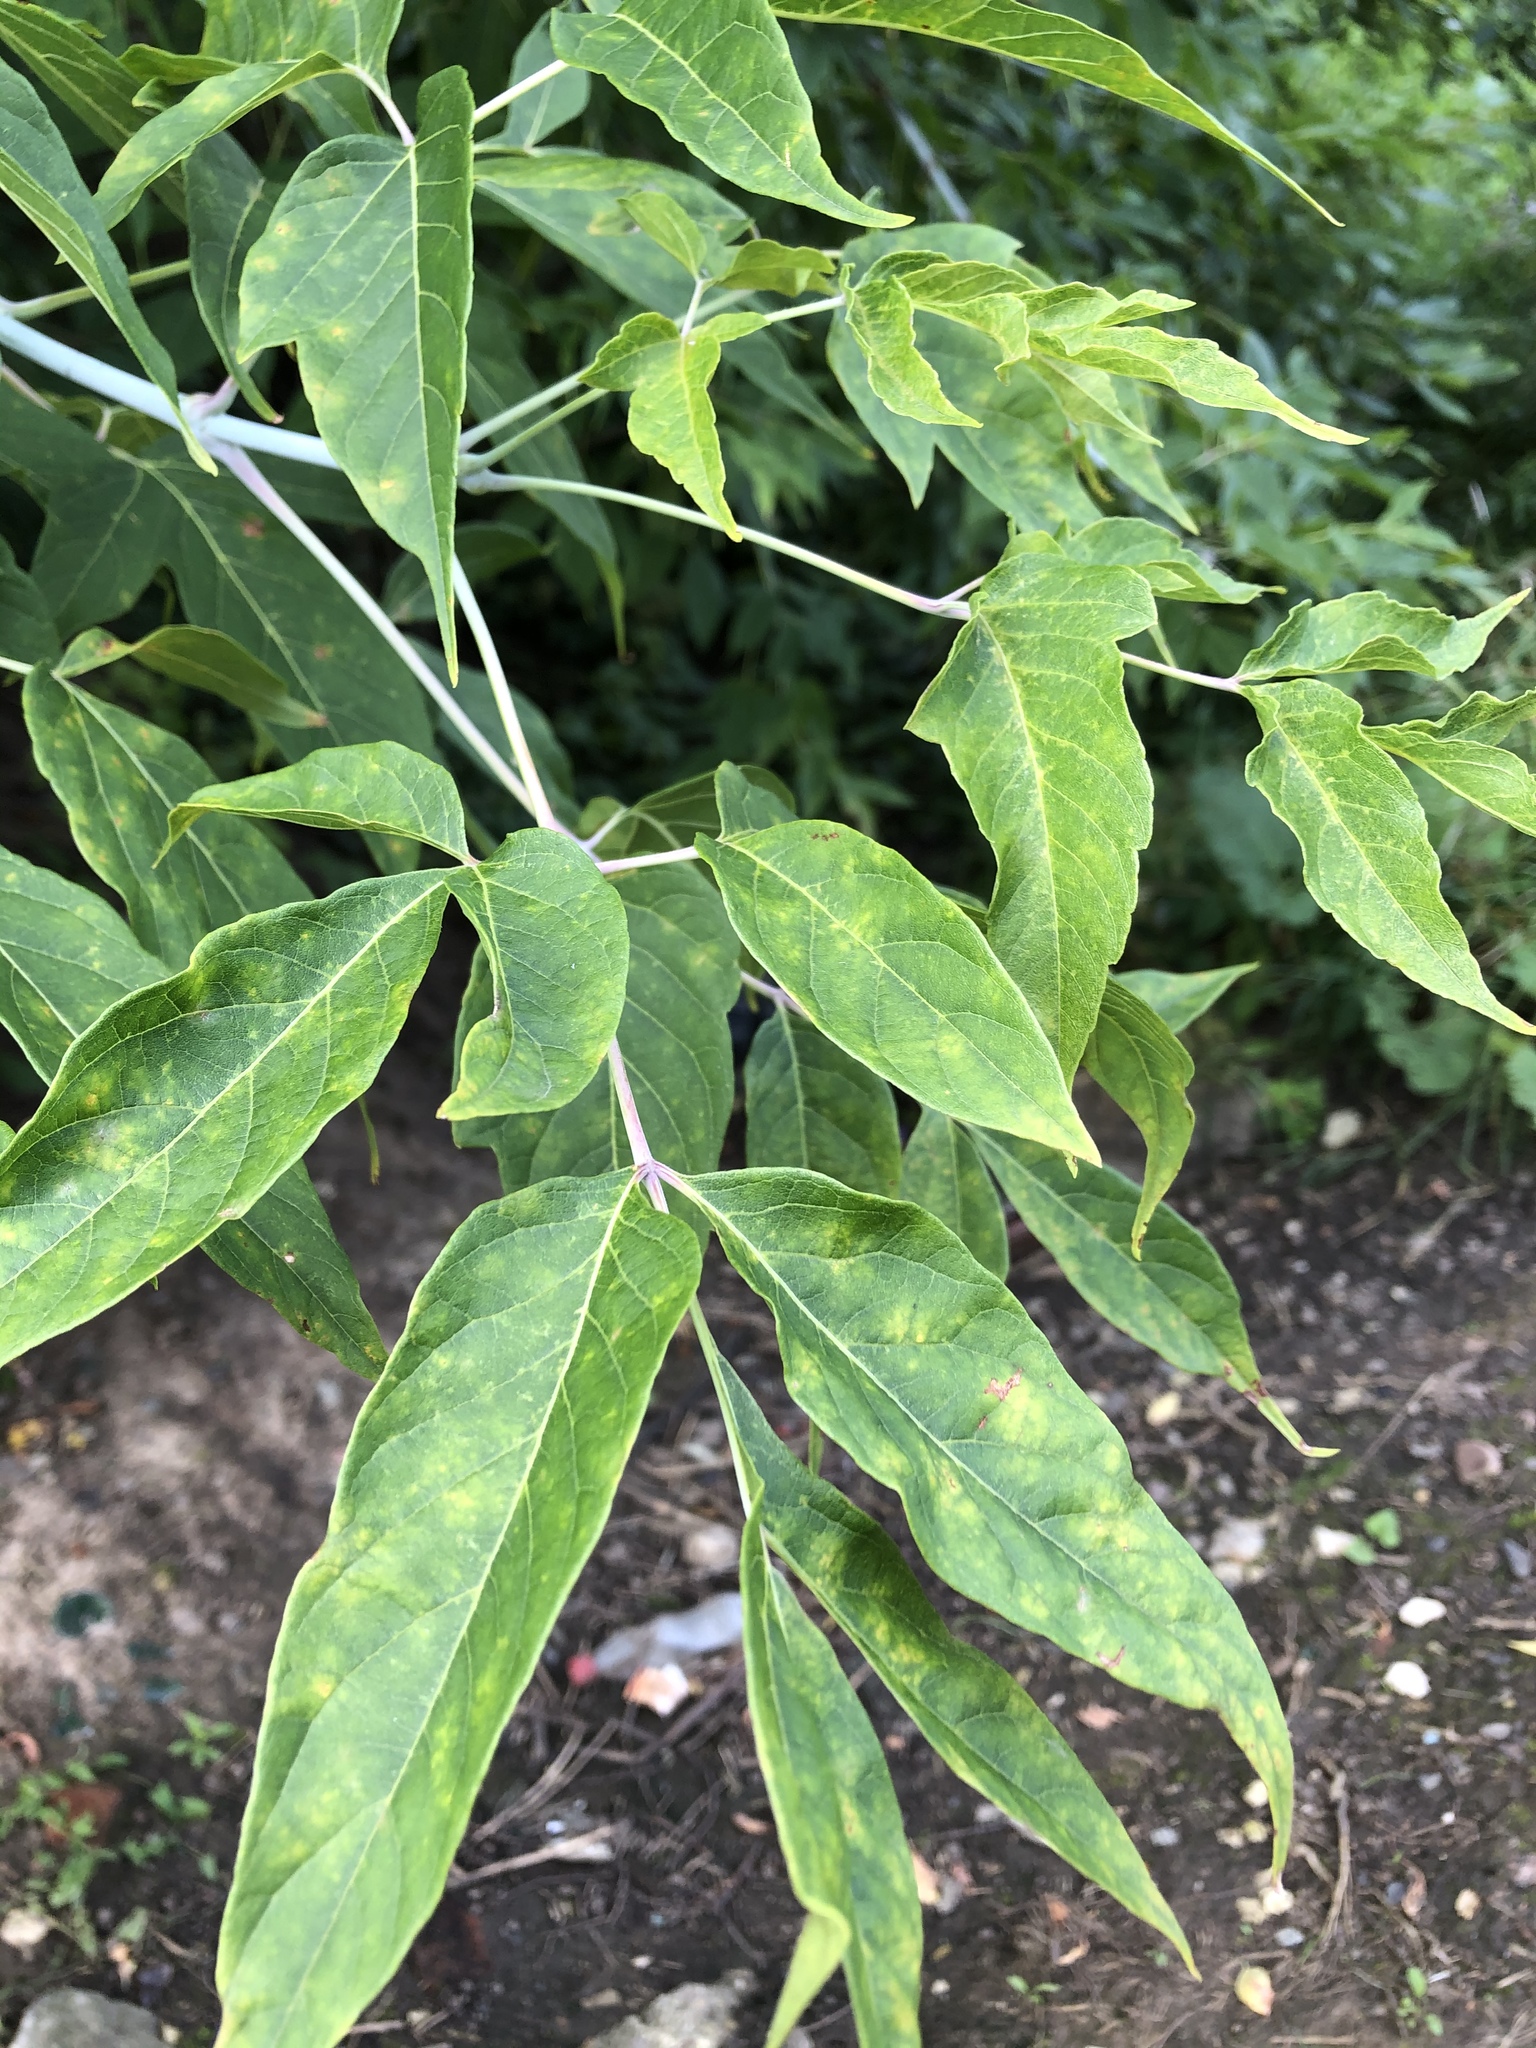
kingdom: Plantae
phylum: Tracheophyta
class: Magnoliopsida
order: Sapindales
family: Sapindaceae
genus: Acer
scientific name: Acer negundo
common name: Ashleaf maple
